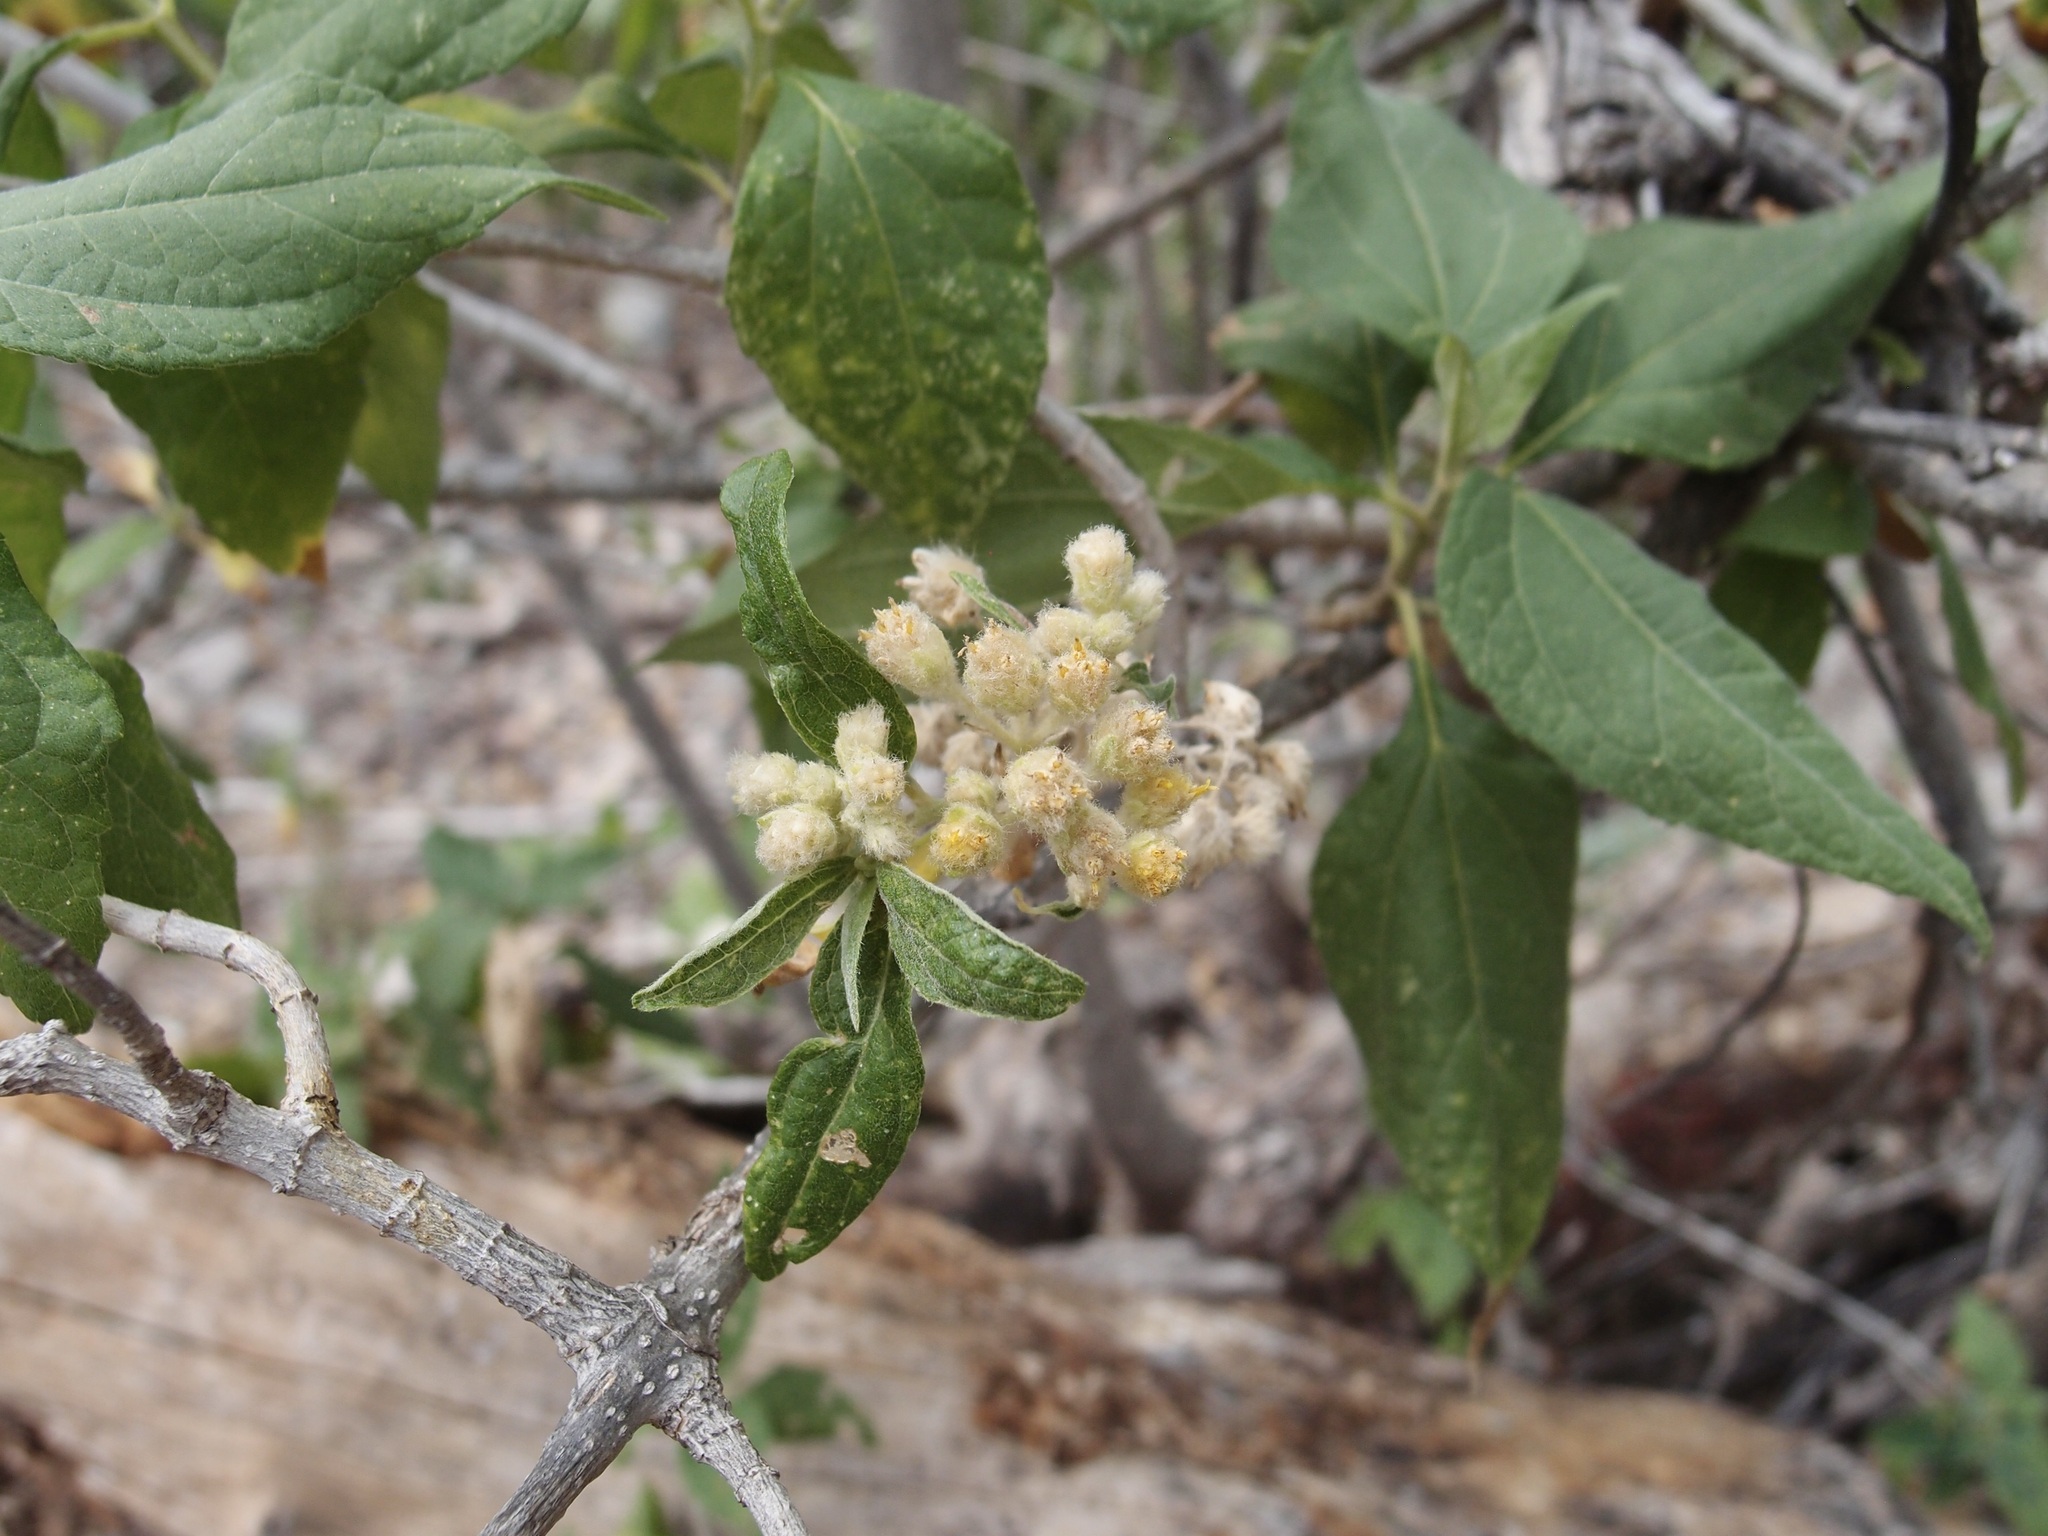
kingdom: Plantae
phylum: Tracheophyta
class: Magnoliopsida
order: Asterales
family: Asteraceae
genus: Montanoa
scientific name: Montanoa tomentosa
